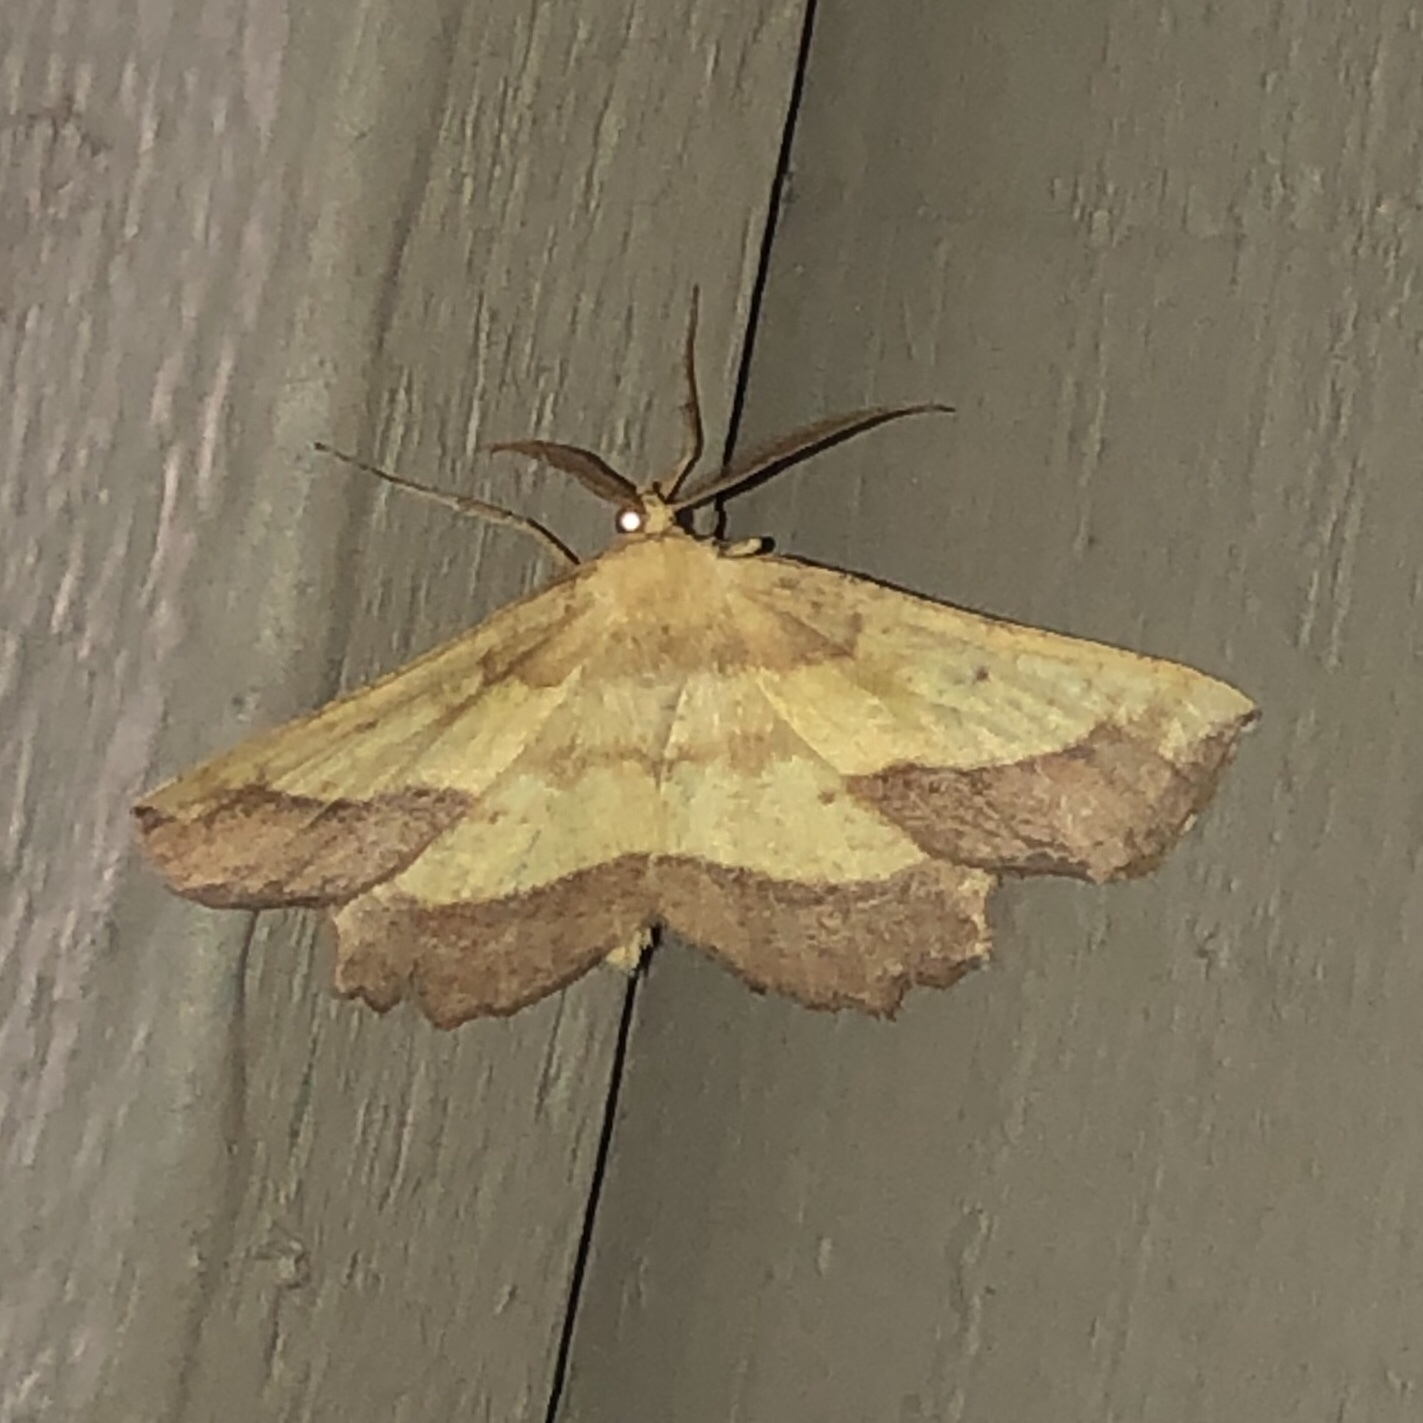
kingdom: Animalia
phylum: Arthropoda
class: Insecta
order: Lepidoptera
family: Geometridae
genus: Euchlaena
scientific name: Euchlaena serrata
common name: Saw wing
